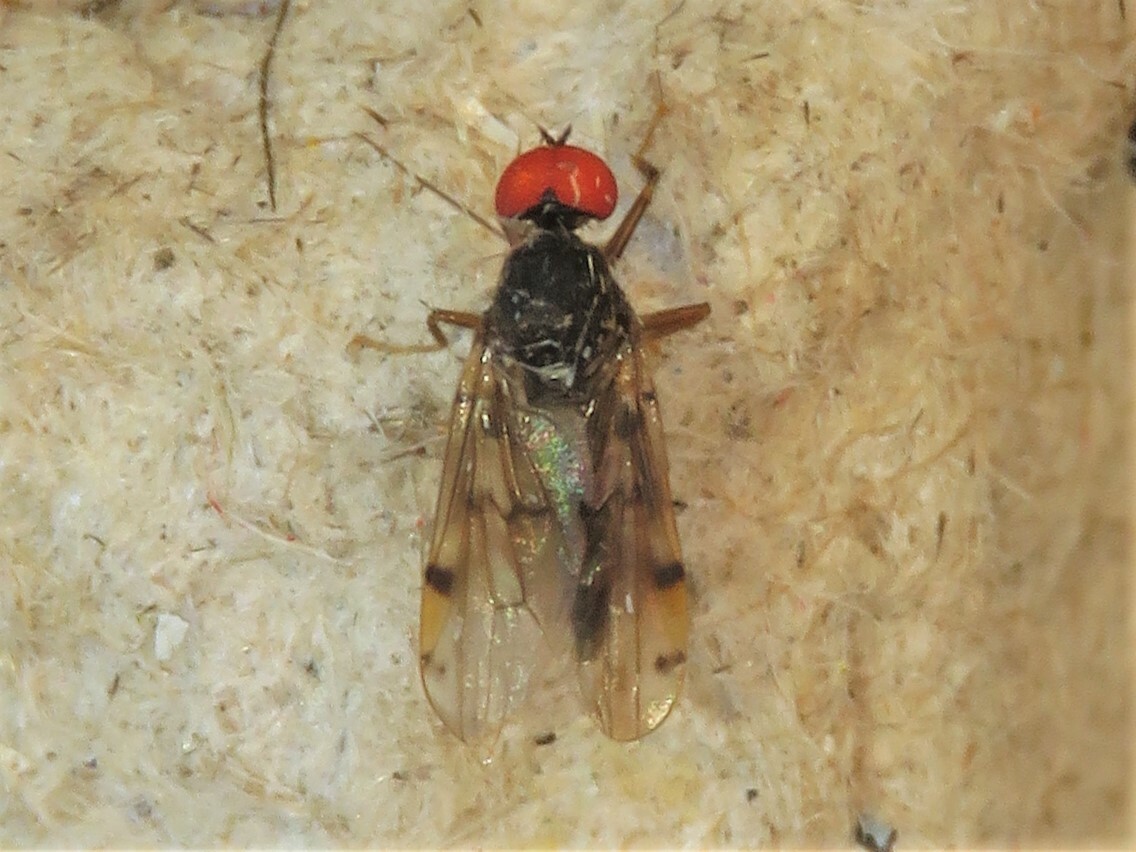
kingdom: Animalia
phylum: Arthropoda
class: Insecta
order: Diptera
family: Hybotidae
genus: Syneches
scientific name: Syneches simplex
